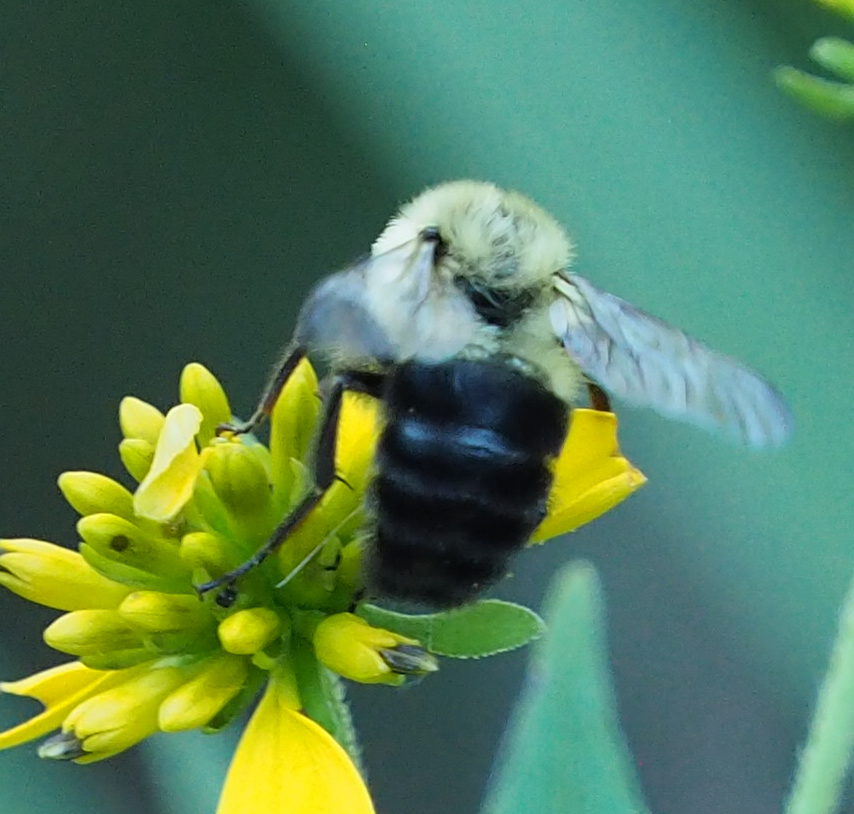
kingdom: Animalia
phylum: Arthropoda
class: Insecta
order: Hymenoptera
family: Apidae
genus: Bombus
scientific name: Bombus impatiens
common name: Common eastern bumble bee
